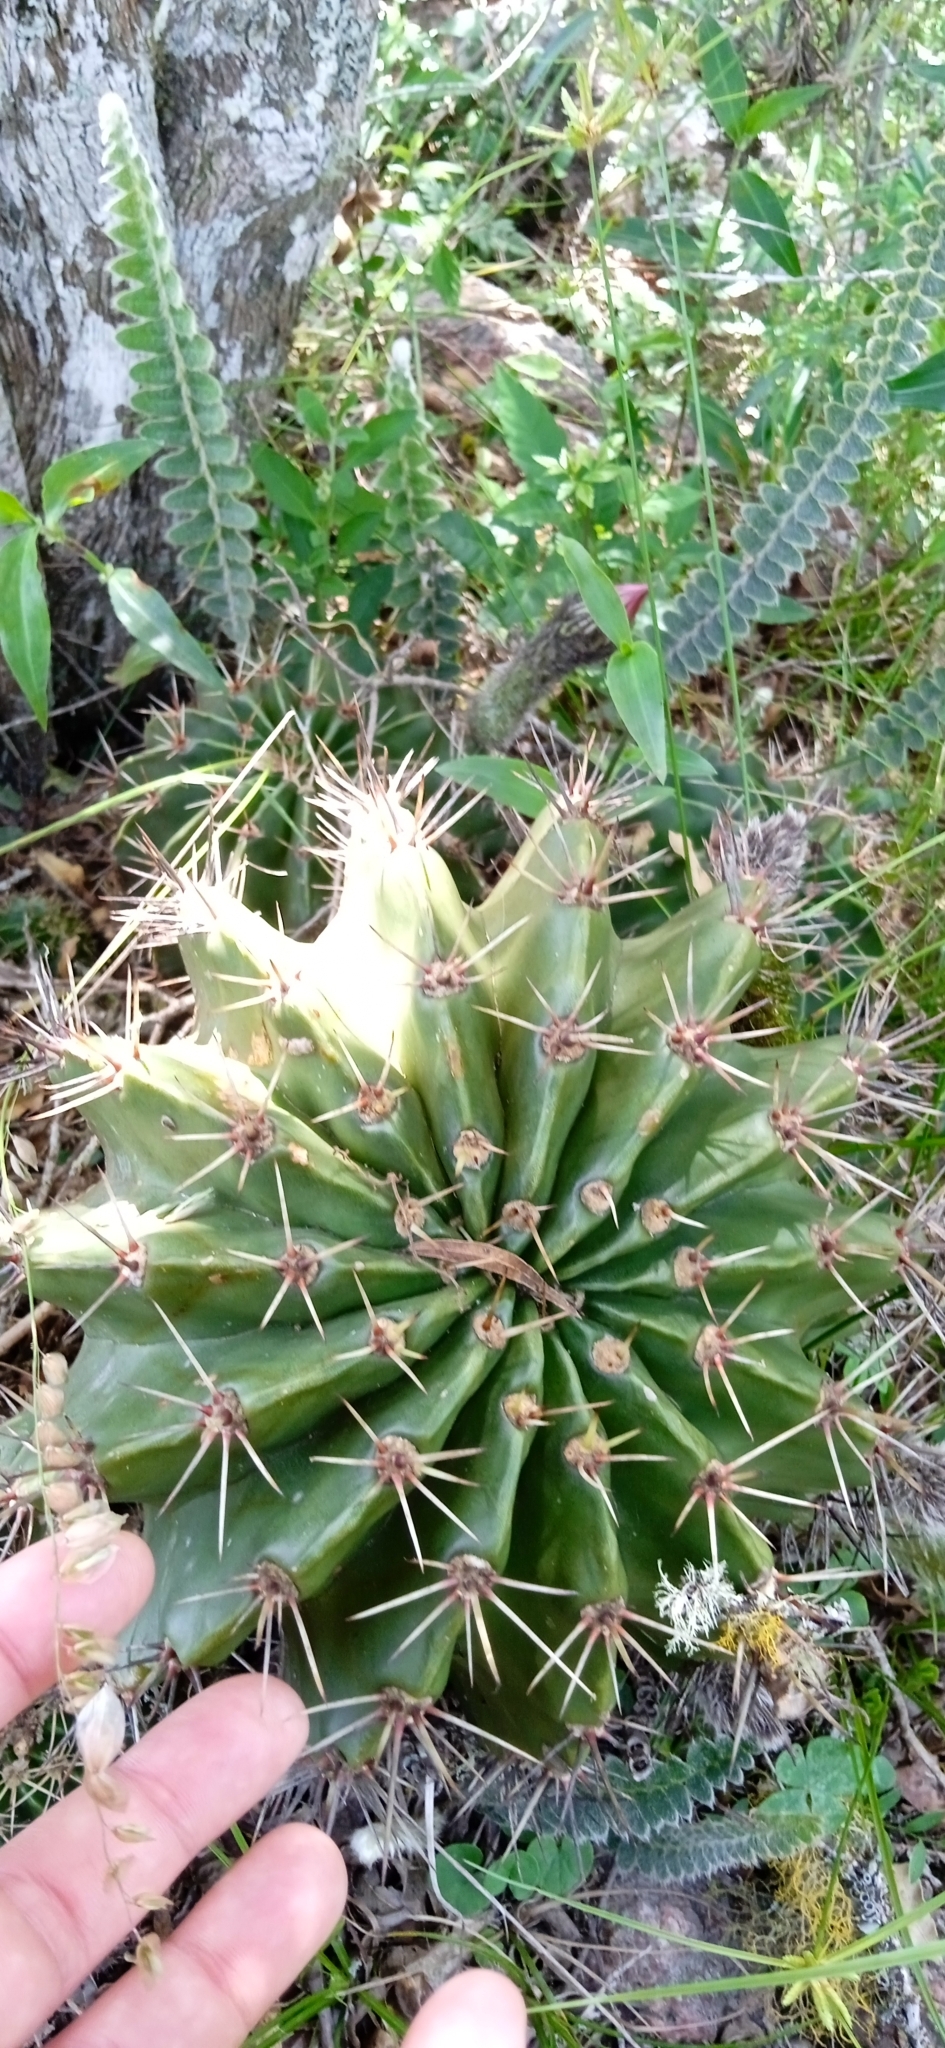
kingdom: Plantae
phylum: Tracheophyta
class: Magnoliopsida
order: Caryophyllales
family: Cactaceae
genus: Echinopsis
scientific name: Echinopsis oxygona
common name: Red easter-lily cactus
